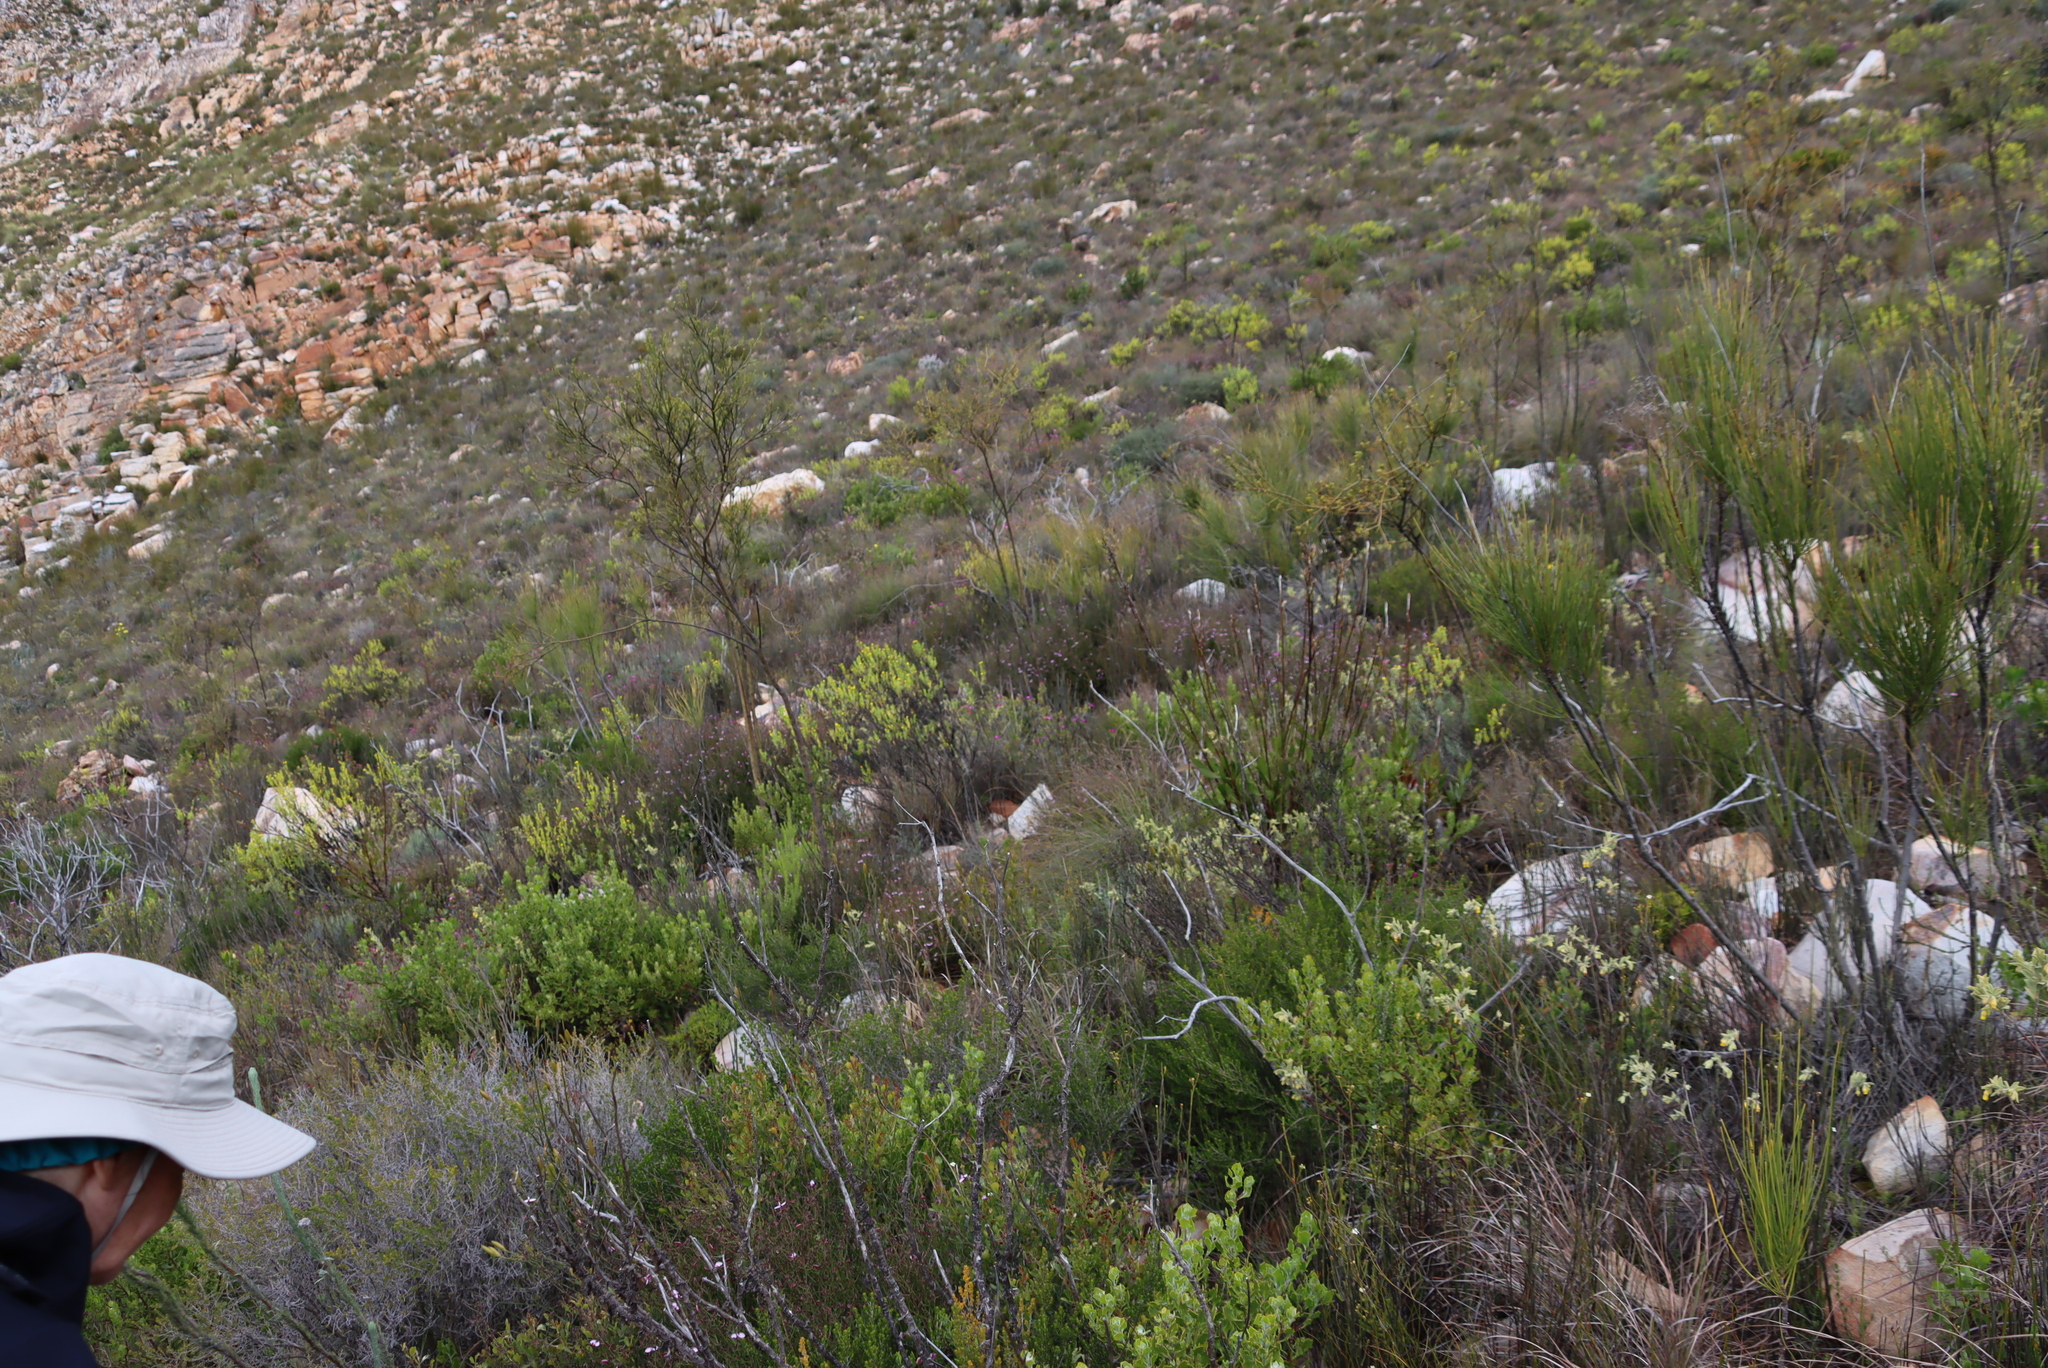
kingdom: Plantae
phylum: Tracheophyta
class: Magnoliopsida
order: Santalales
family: Thesiaceae
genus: Thesium
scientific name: Thesium strictum
